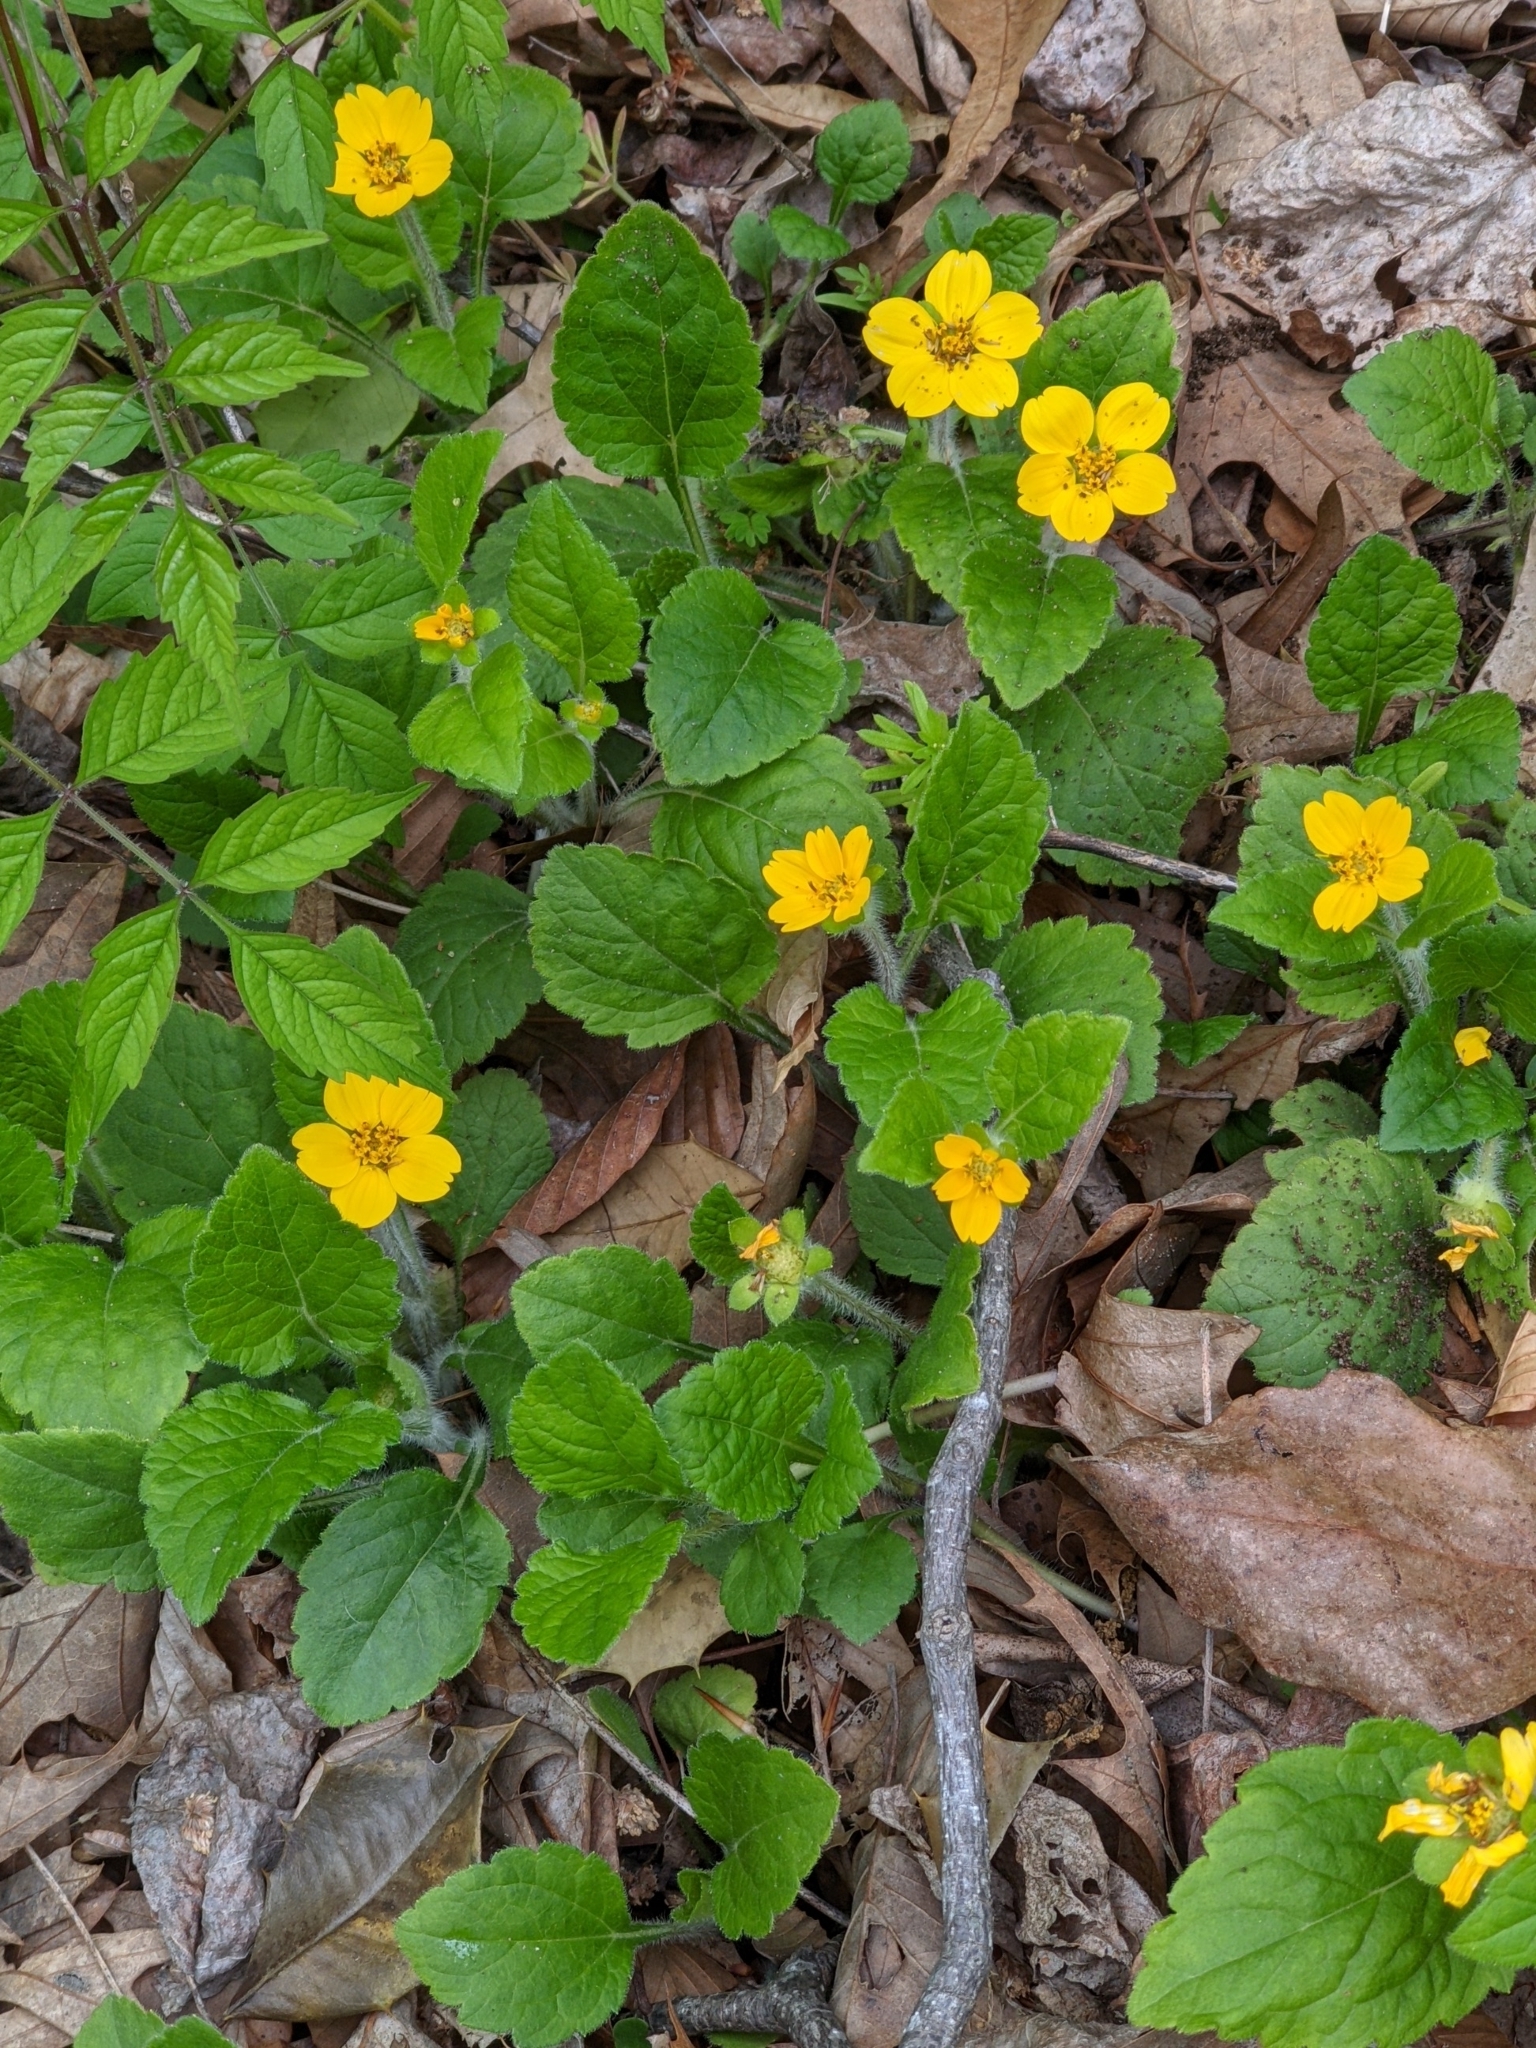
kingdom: Plantae
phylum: Tracheophyta
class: Magnoliopsida
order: Asterales
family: Asteraceae
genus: Chrysogonum
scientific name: Chrysogonum virginianum
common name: Golden-knee
